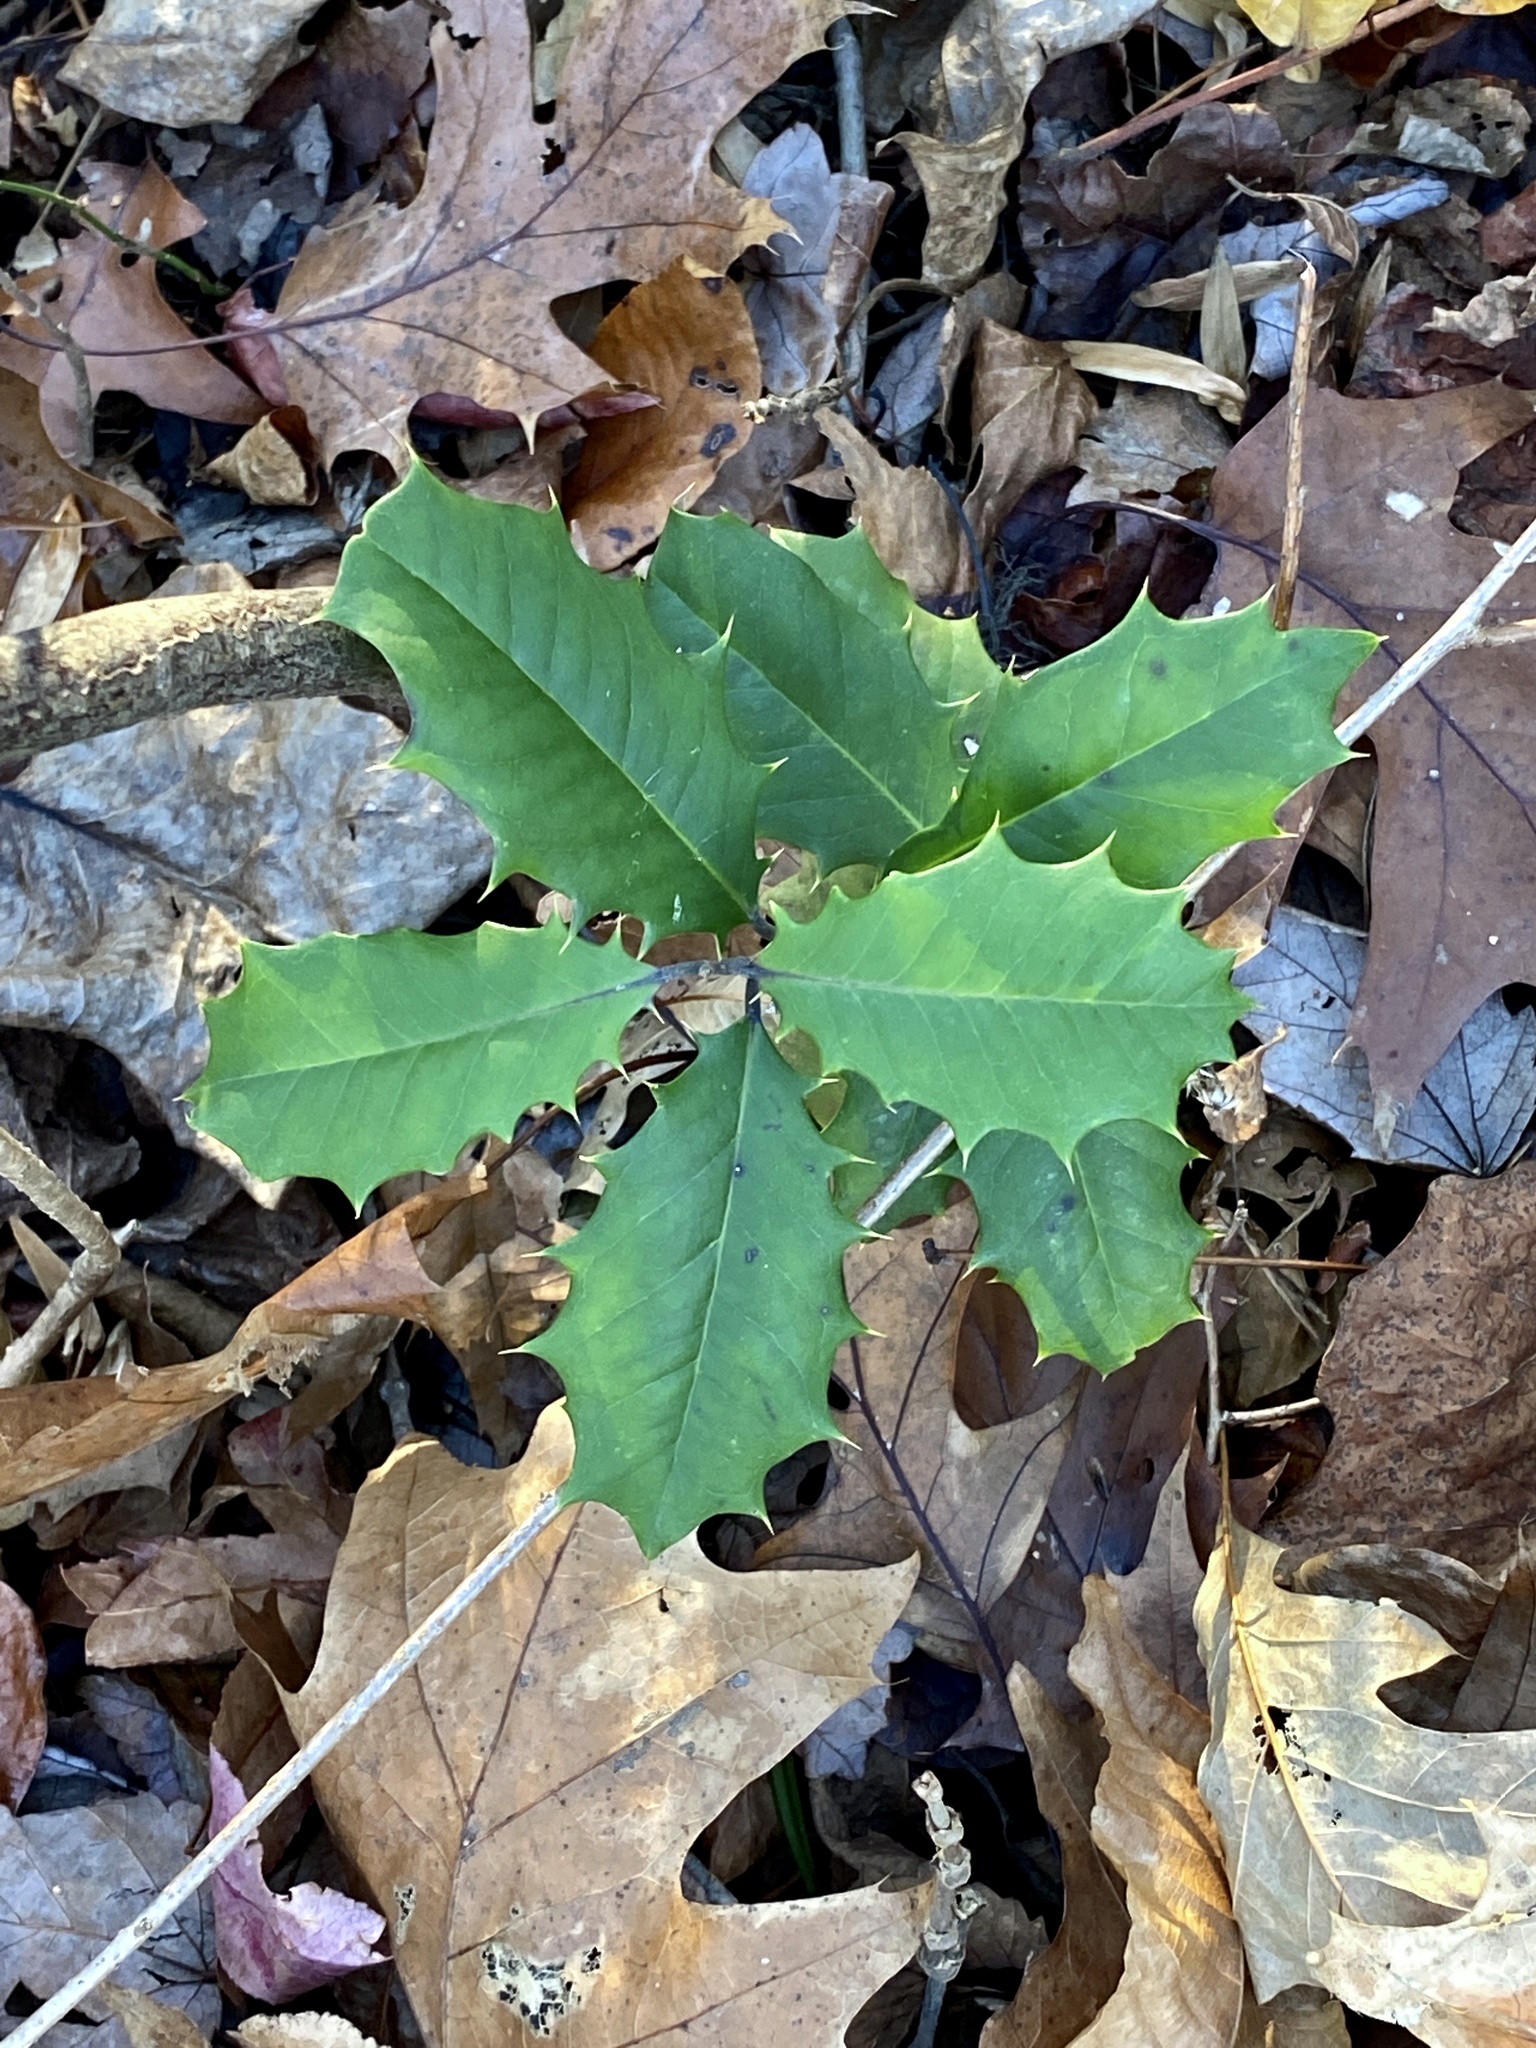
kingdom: Plantae
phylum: Tracheophyta
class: Magnoliopsida
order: Aquifoliales
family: Aquifoliaceae
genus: Ilex
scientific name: Ilex opaca
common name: American holly
